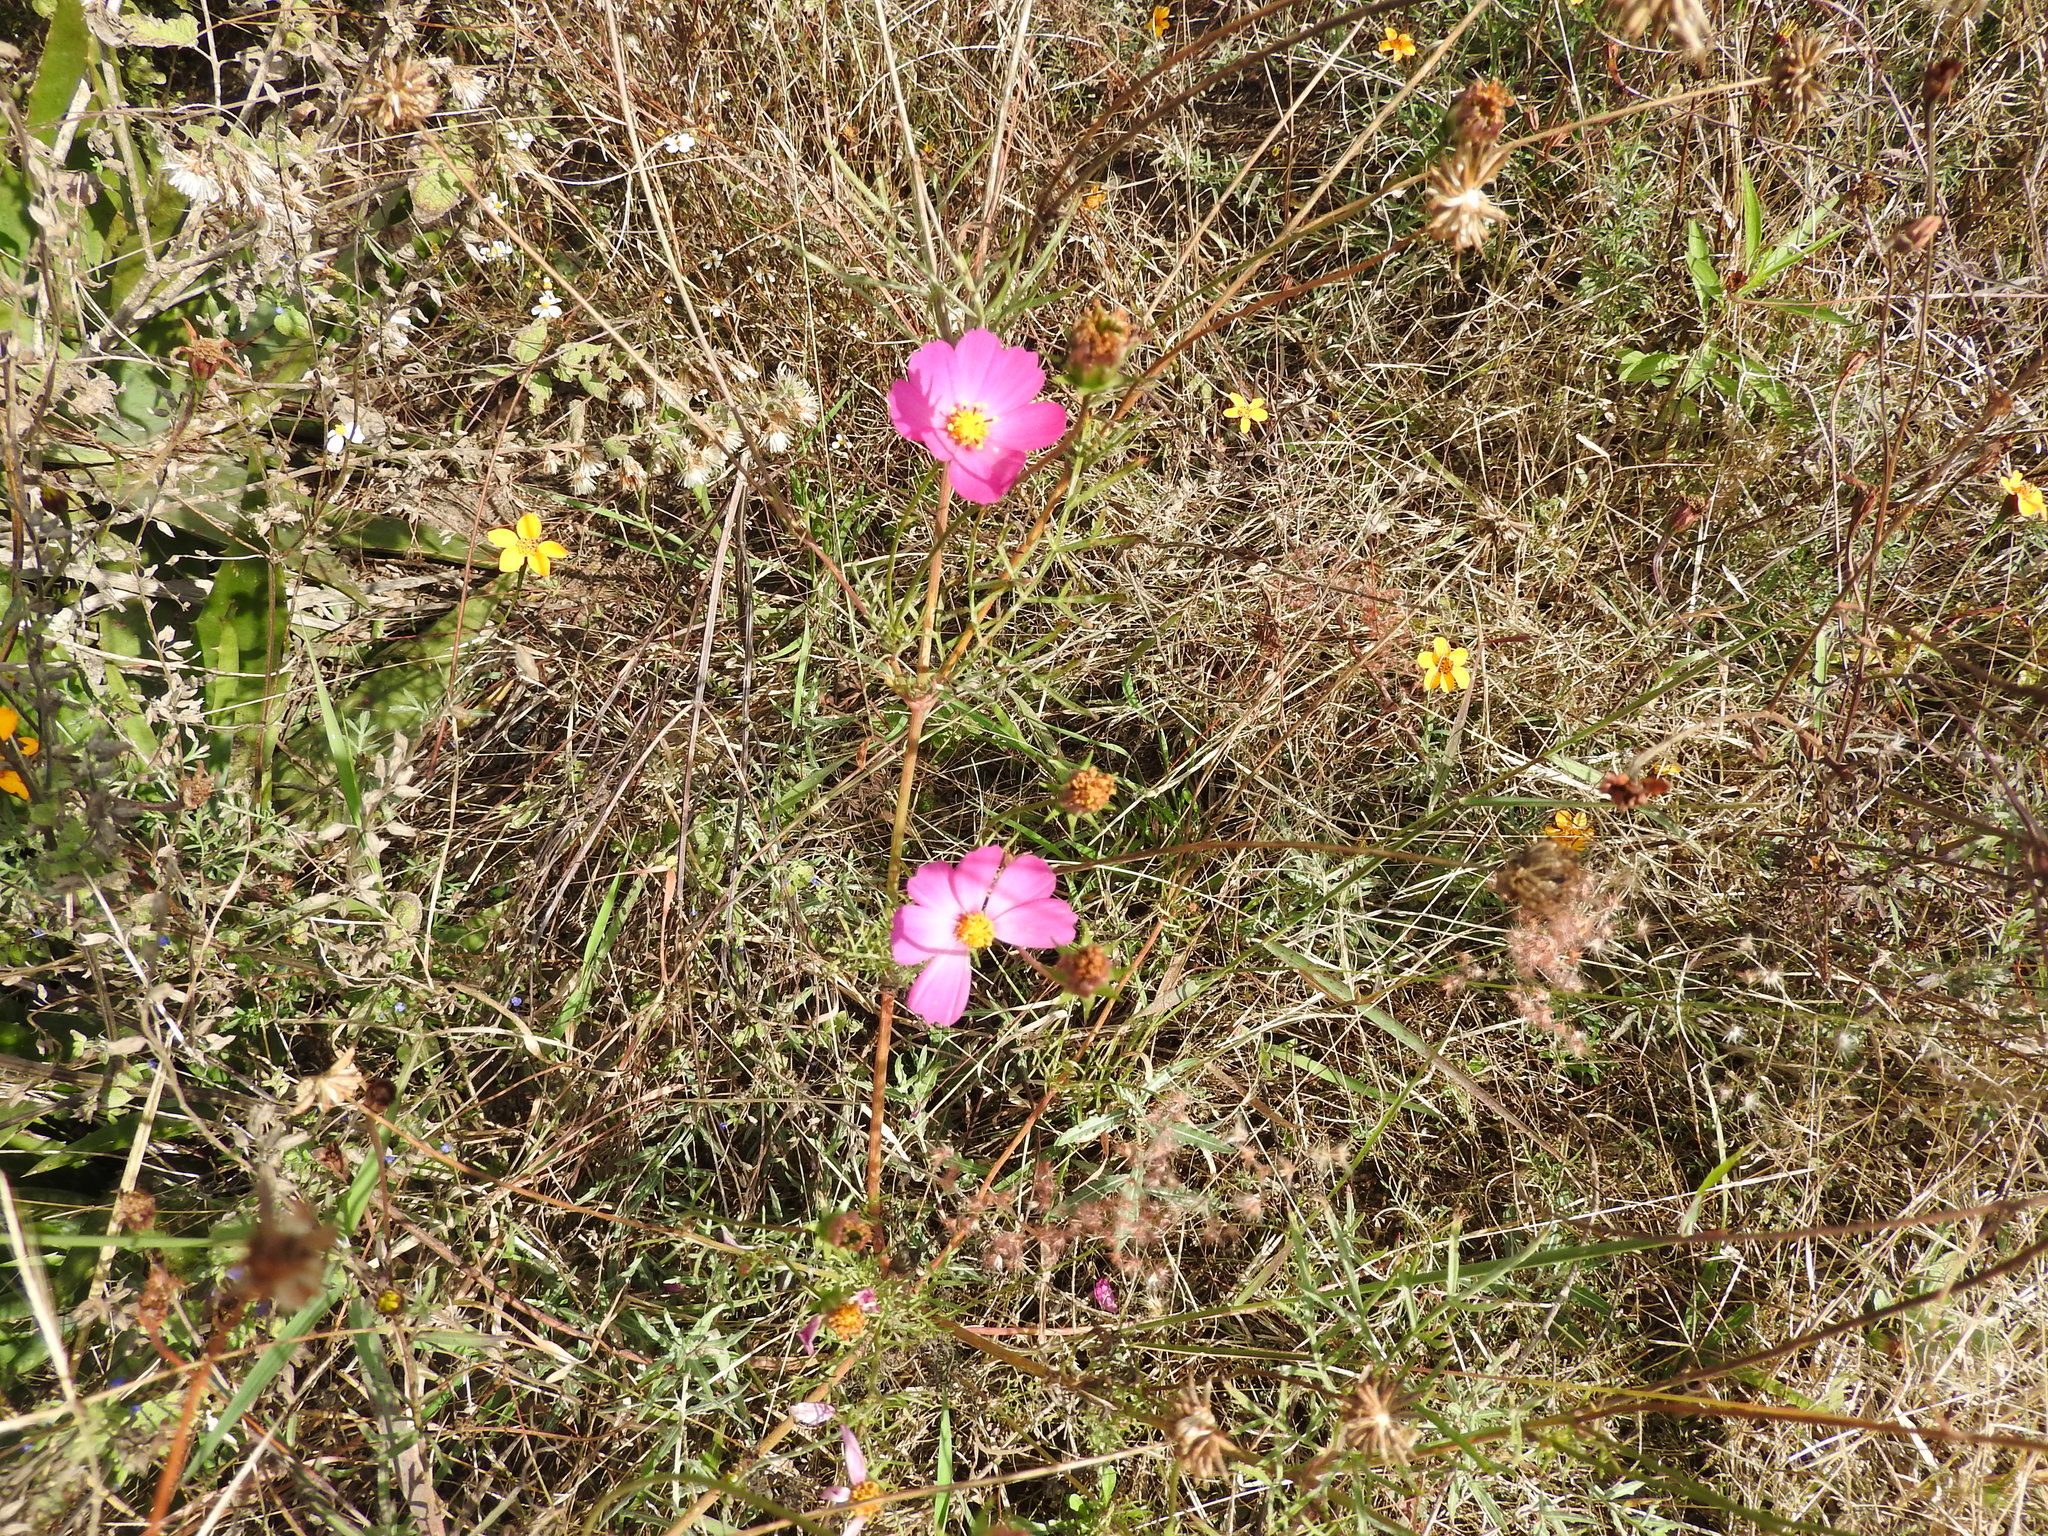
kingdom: Plantae
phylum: Tracheophyta
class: Magnoliopsida
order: Asterales
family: Asteraceae
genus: Cosmos
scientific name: Cosmos bipinnatus
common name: Garden cosmos
